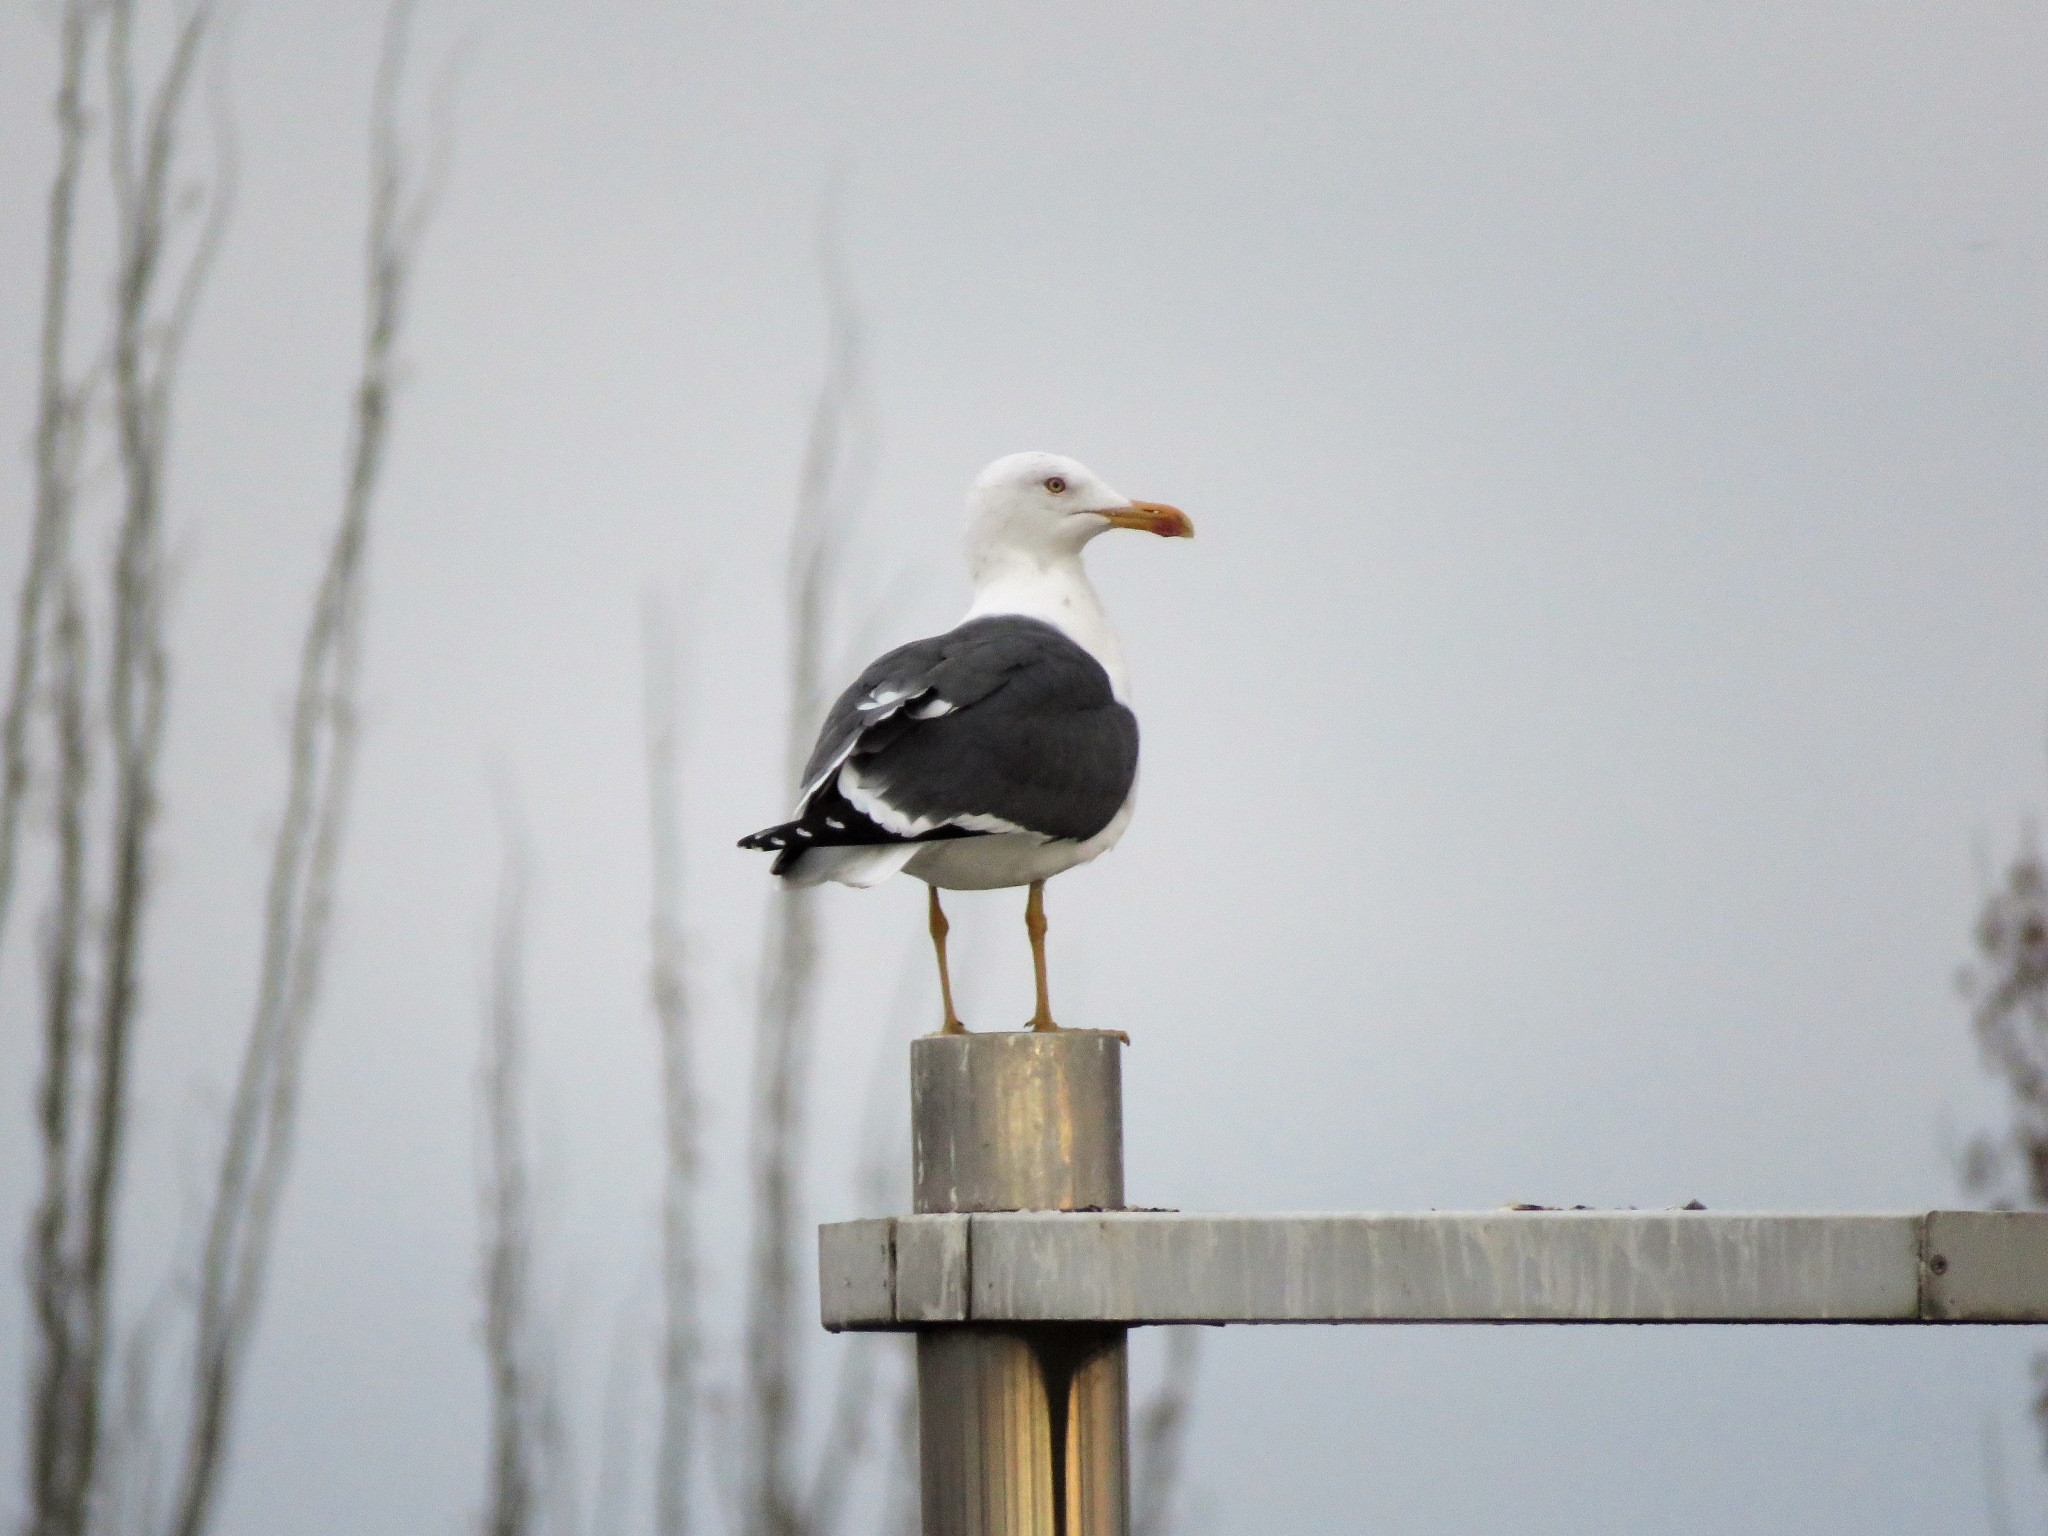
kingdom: Animalia
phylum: Chordata
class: Aves
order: Charadriiformes
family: Laridae
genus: Larus
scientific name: Larus fuscus
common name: Lesser black-backed gull
